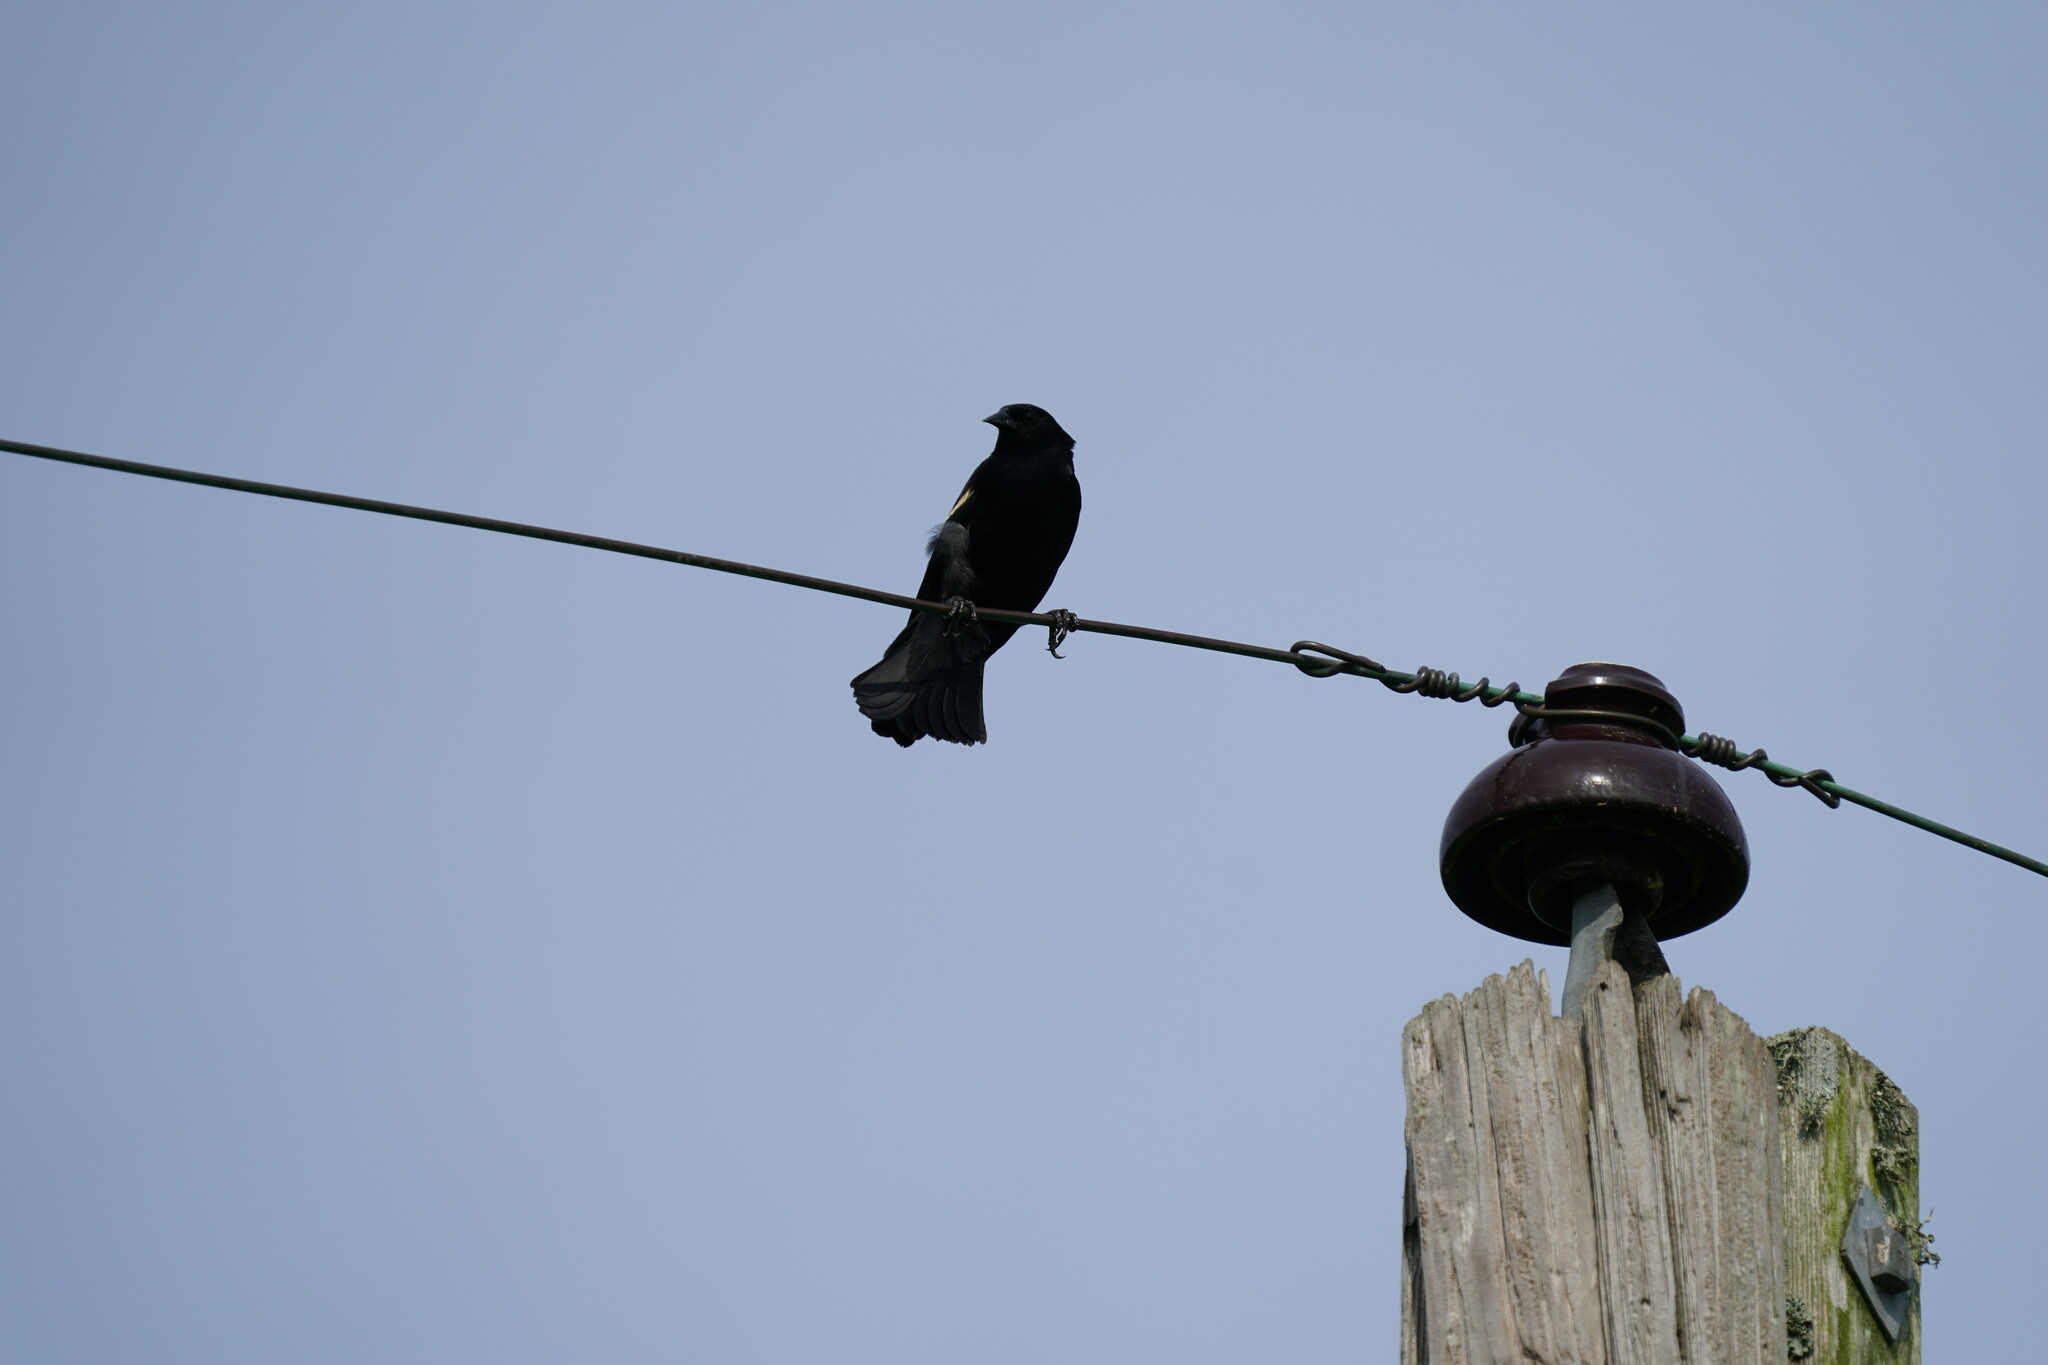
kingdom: Animalia
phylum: Chordata
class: Aves
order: Passeriformes
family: Icteridae
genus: Agelaius
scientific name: Agelaius phoeniceus
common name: Red-winged blackbird
